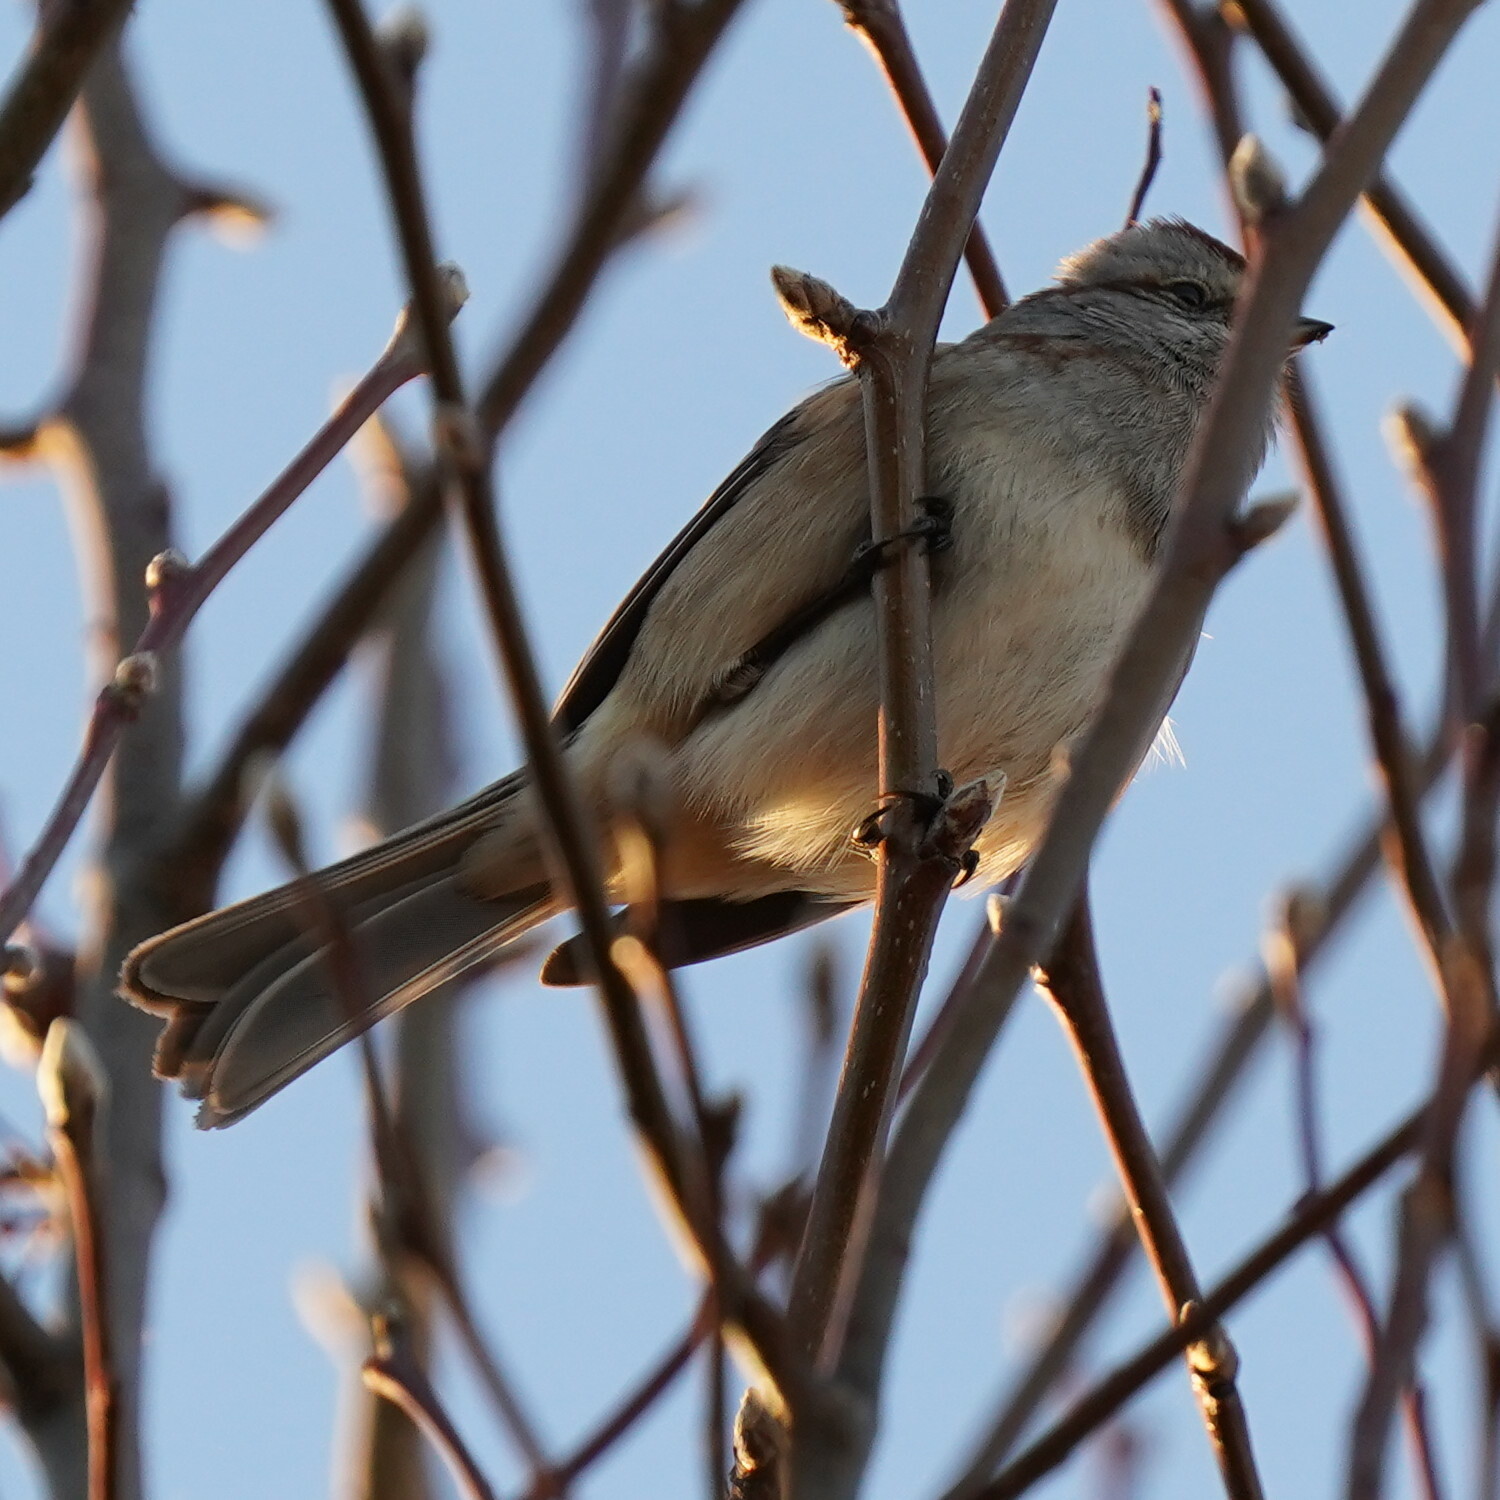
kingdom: Animalia
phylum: Chordata
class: Aves
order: Passeriformes
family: Passerellidae
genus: Spizelloides
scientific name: Spizelloides arborea
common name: American tree sparrow
